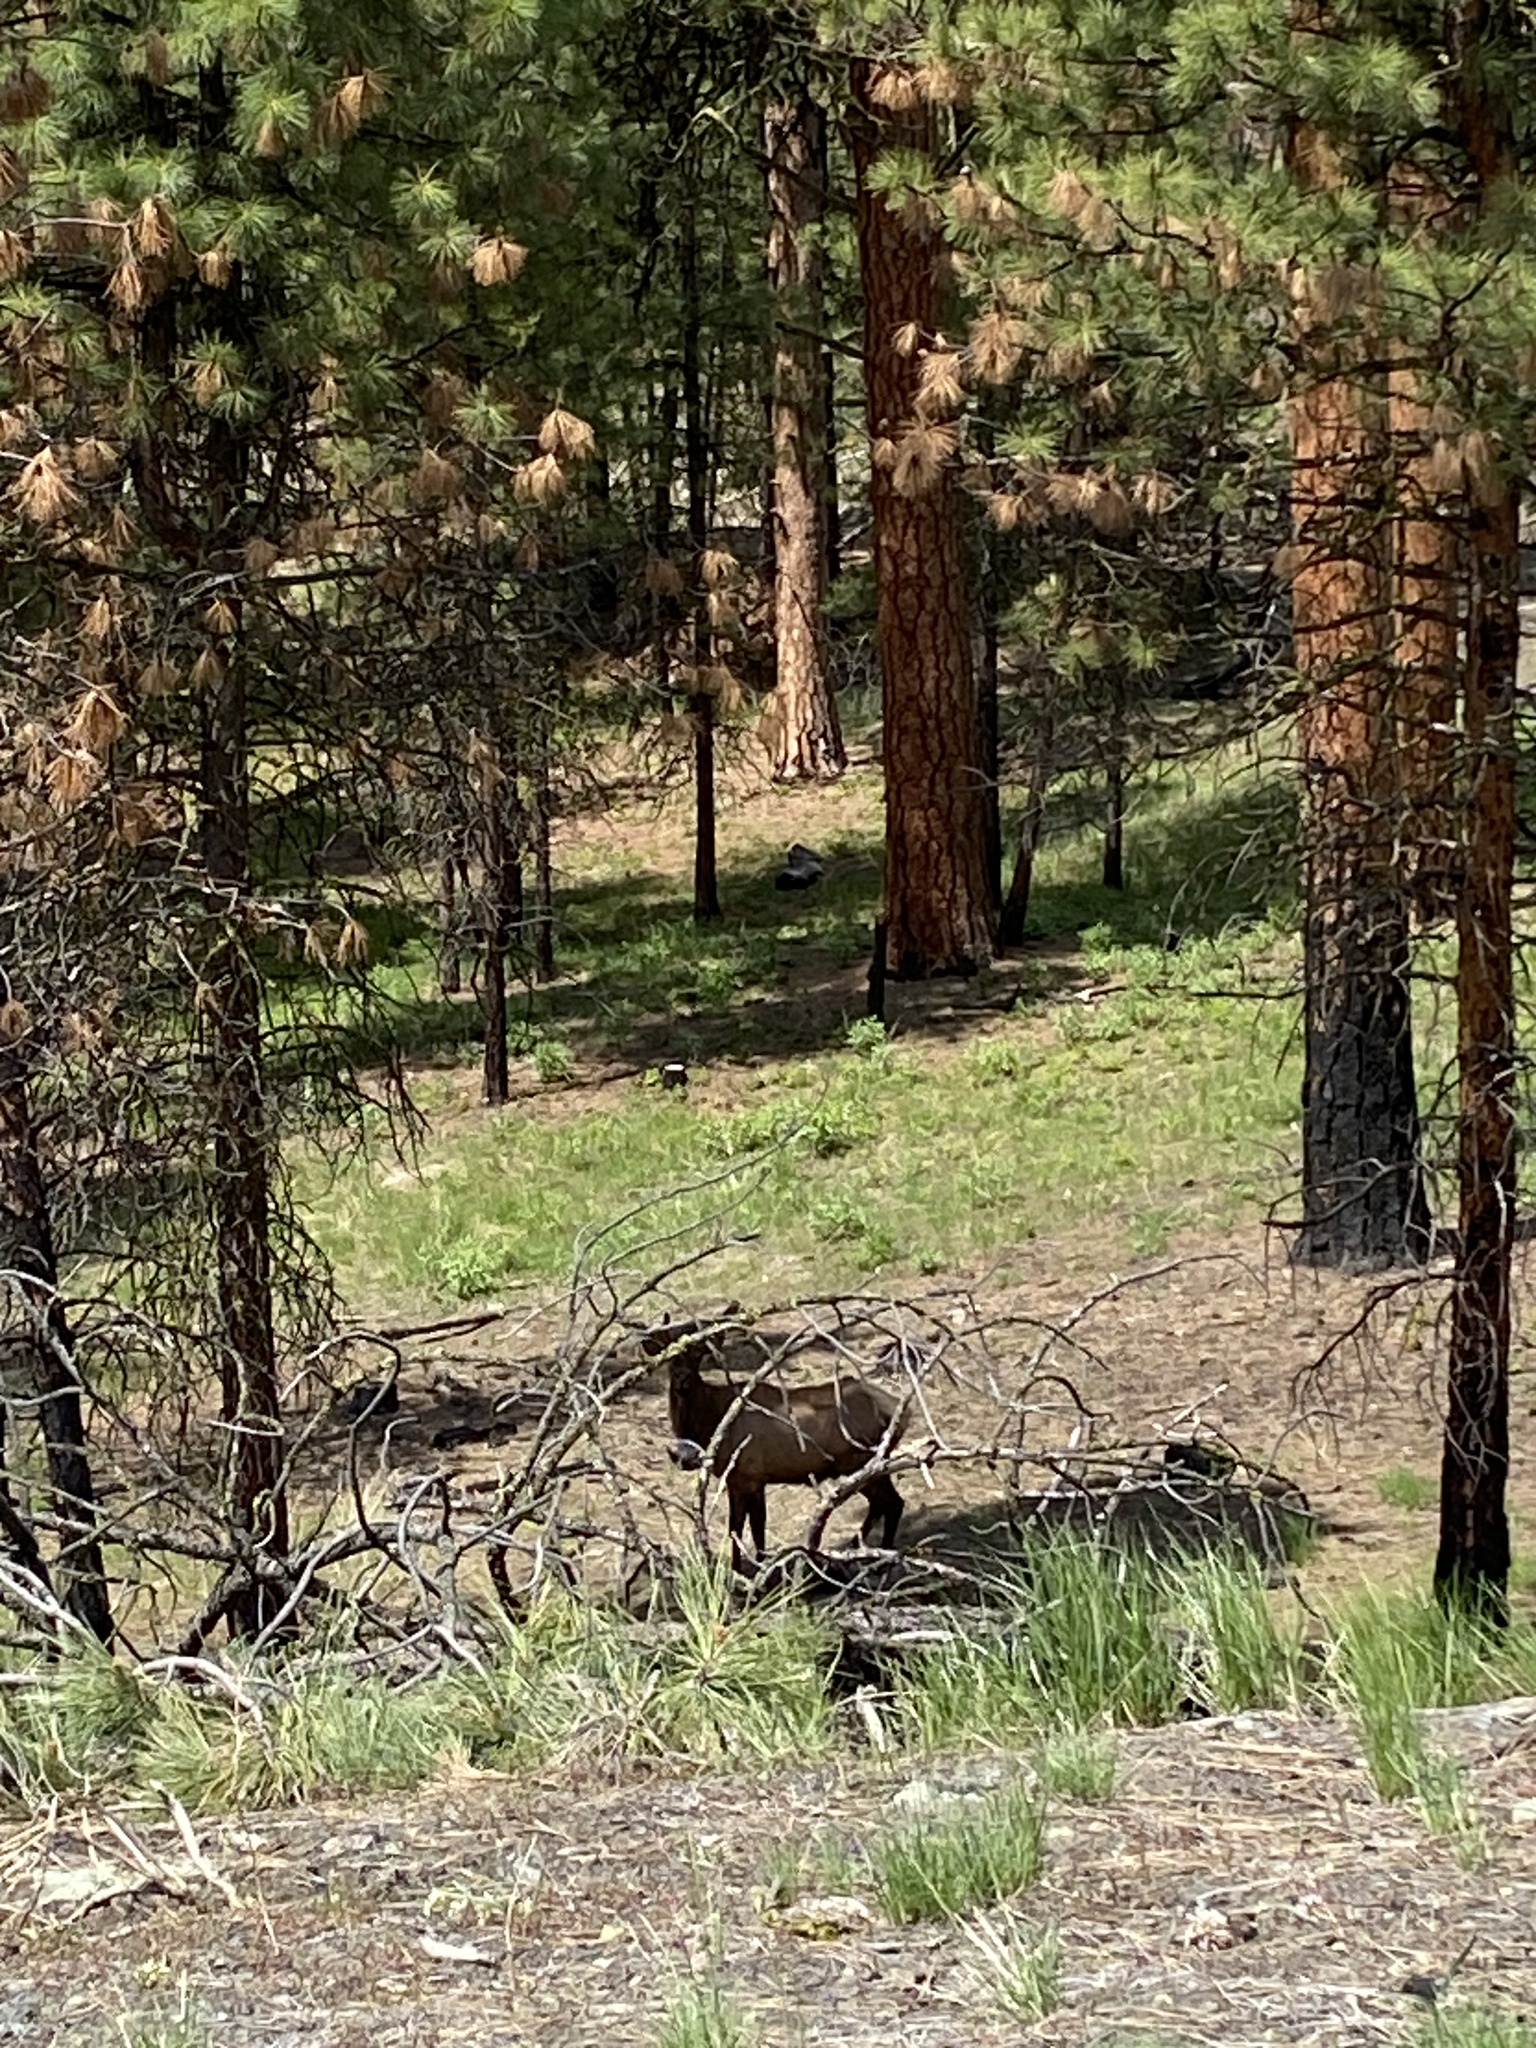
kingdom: Animalia
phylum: Chordata
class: Mammalia
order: Artiodactyla
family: Cervidae
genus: Cervus
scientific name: Cervus elaphus
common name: Red deer
